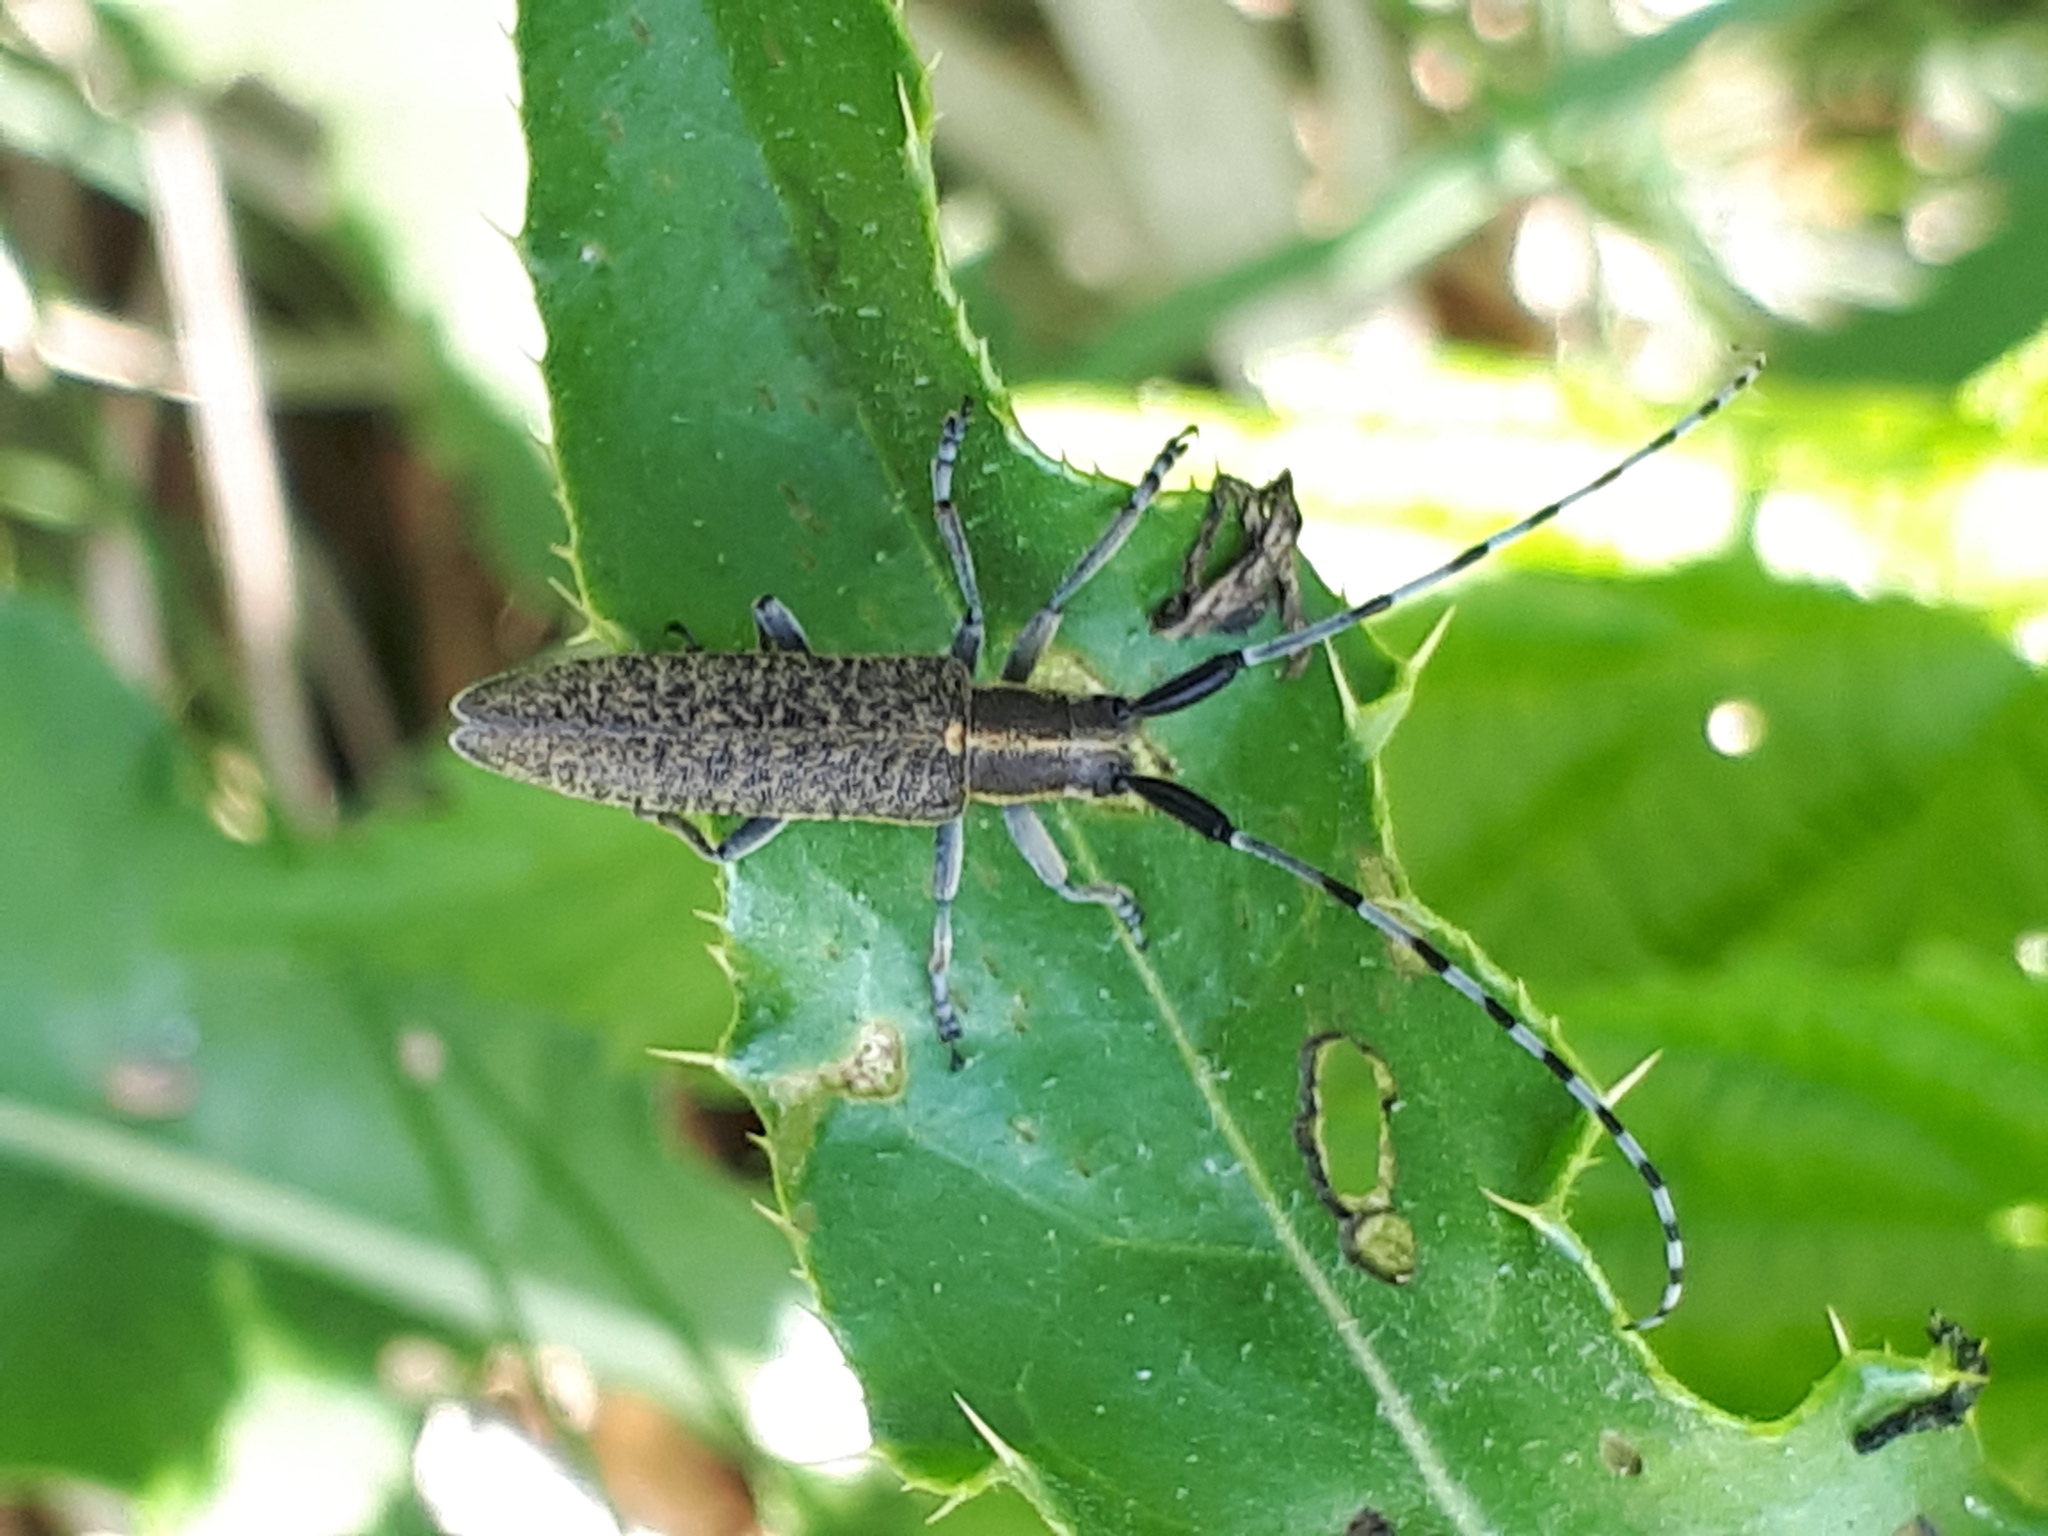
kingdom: Animalia
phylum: Arthropoda
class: Insecta
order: Coleoptera
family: Cerambycidae
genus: Agapanthia
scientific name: Agapanthia villosoviridescens
